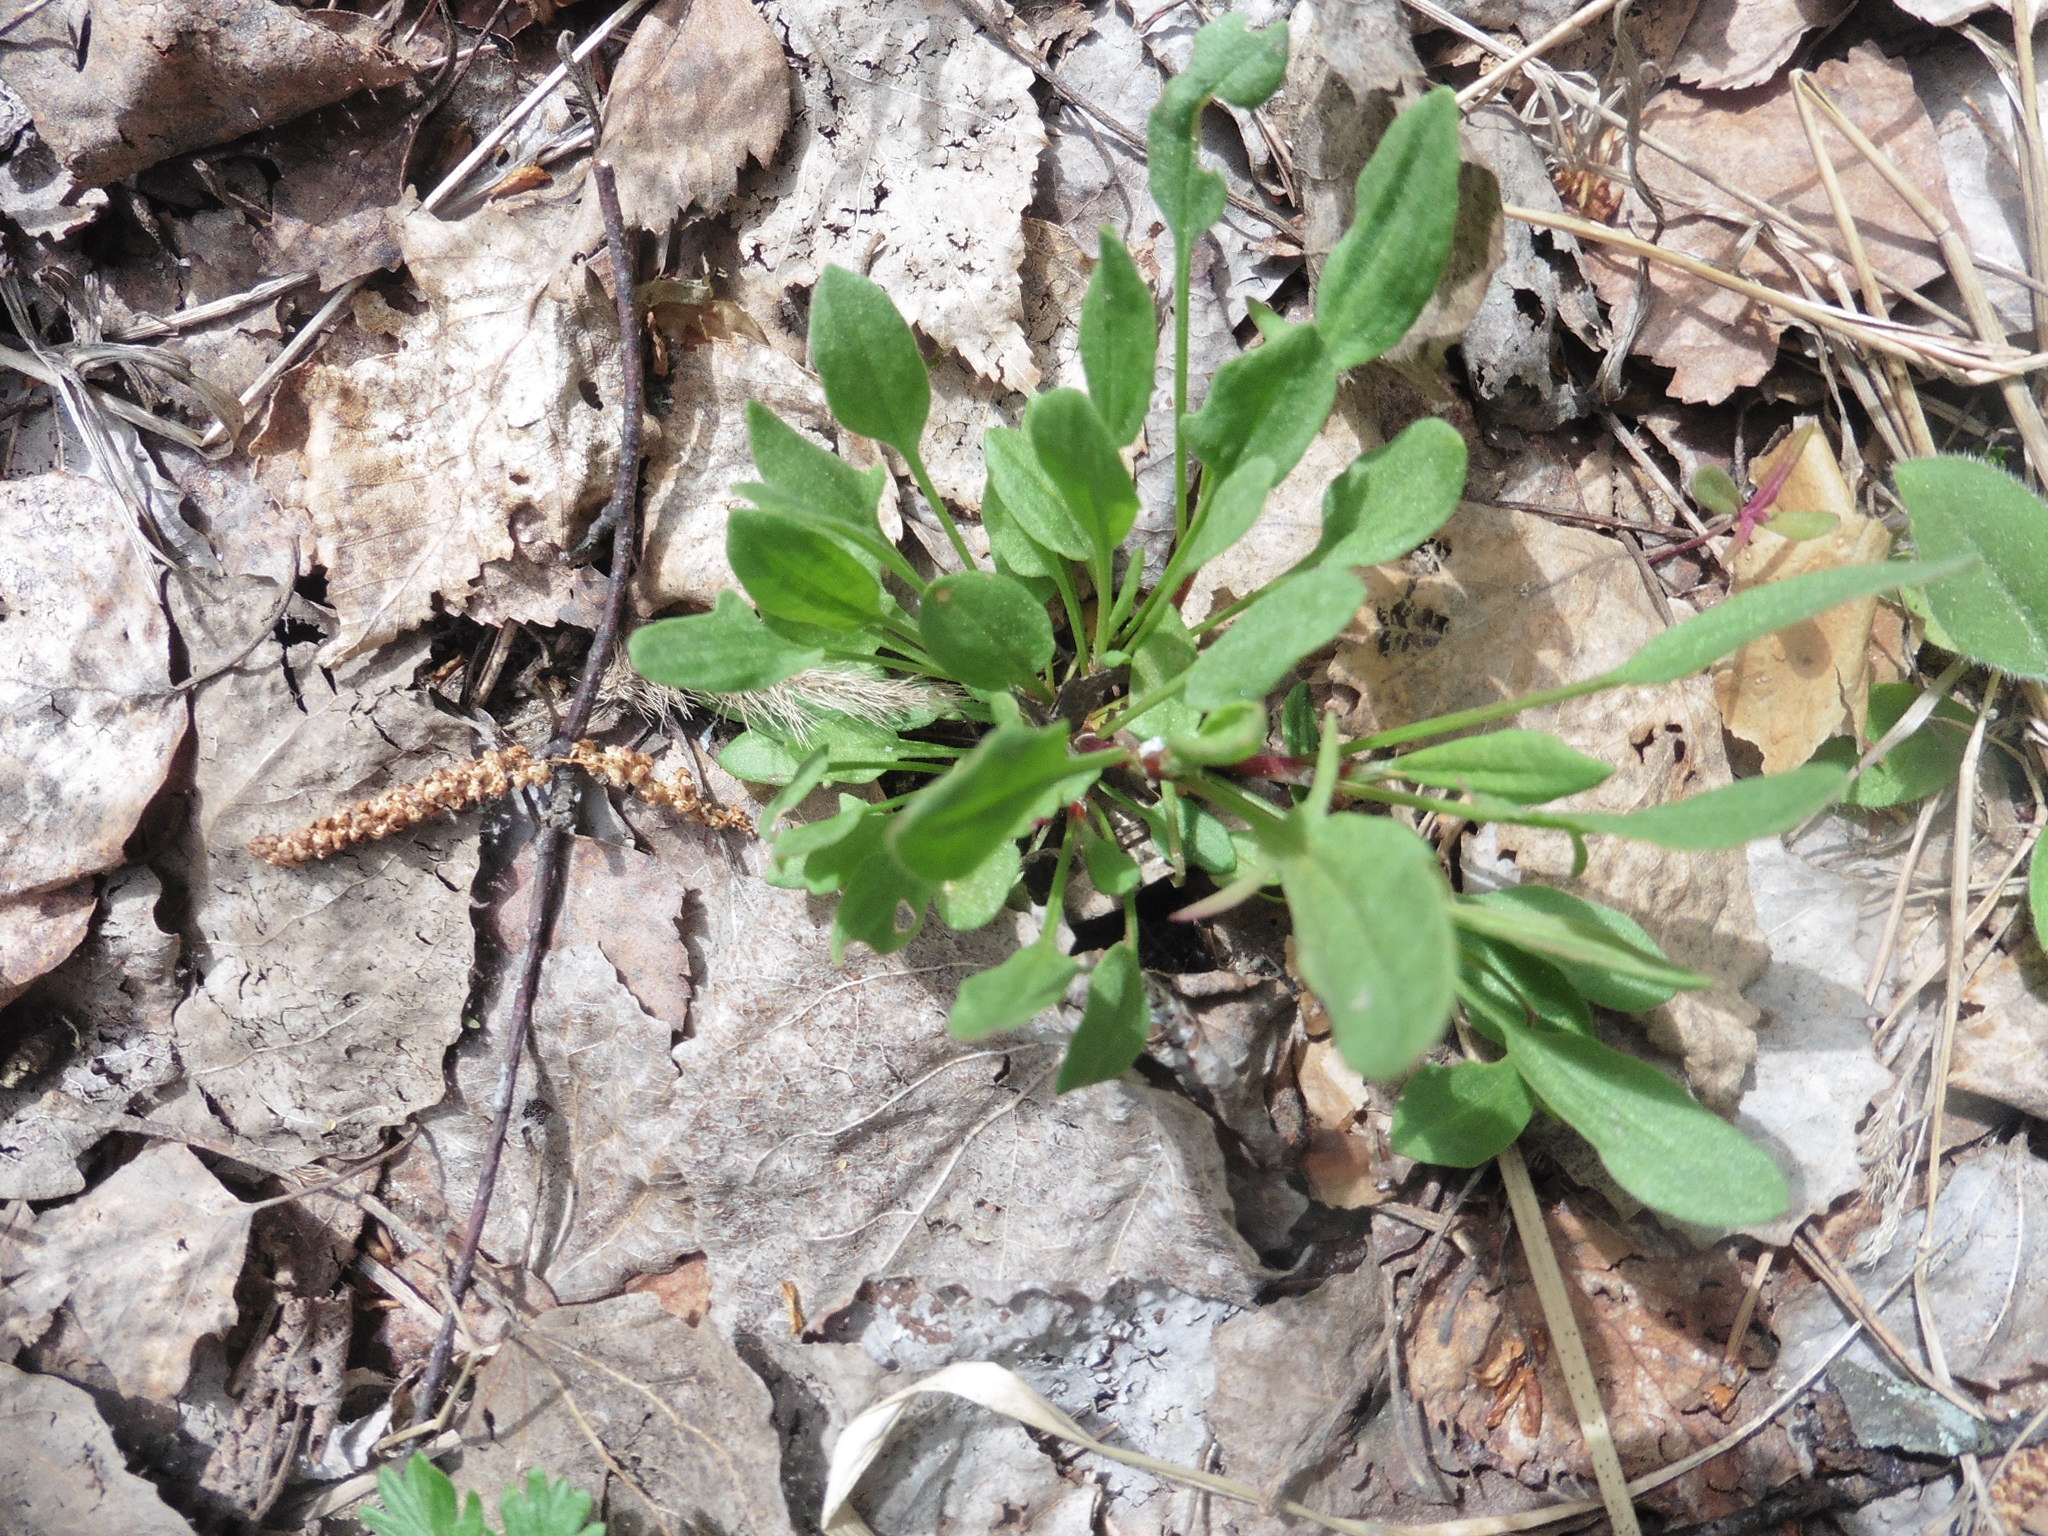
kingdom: Plantae
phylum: Tracheophyta
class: Magnoliopsida
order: Caryophyllales
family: Polygonaceae
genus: Rumex
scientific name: Rumex acetosella
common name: Common sheep sorrel
